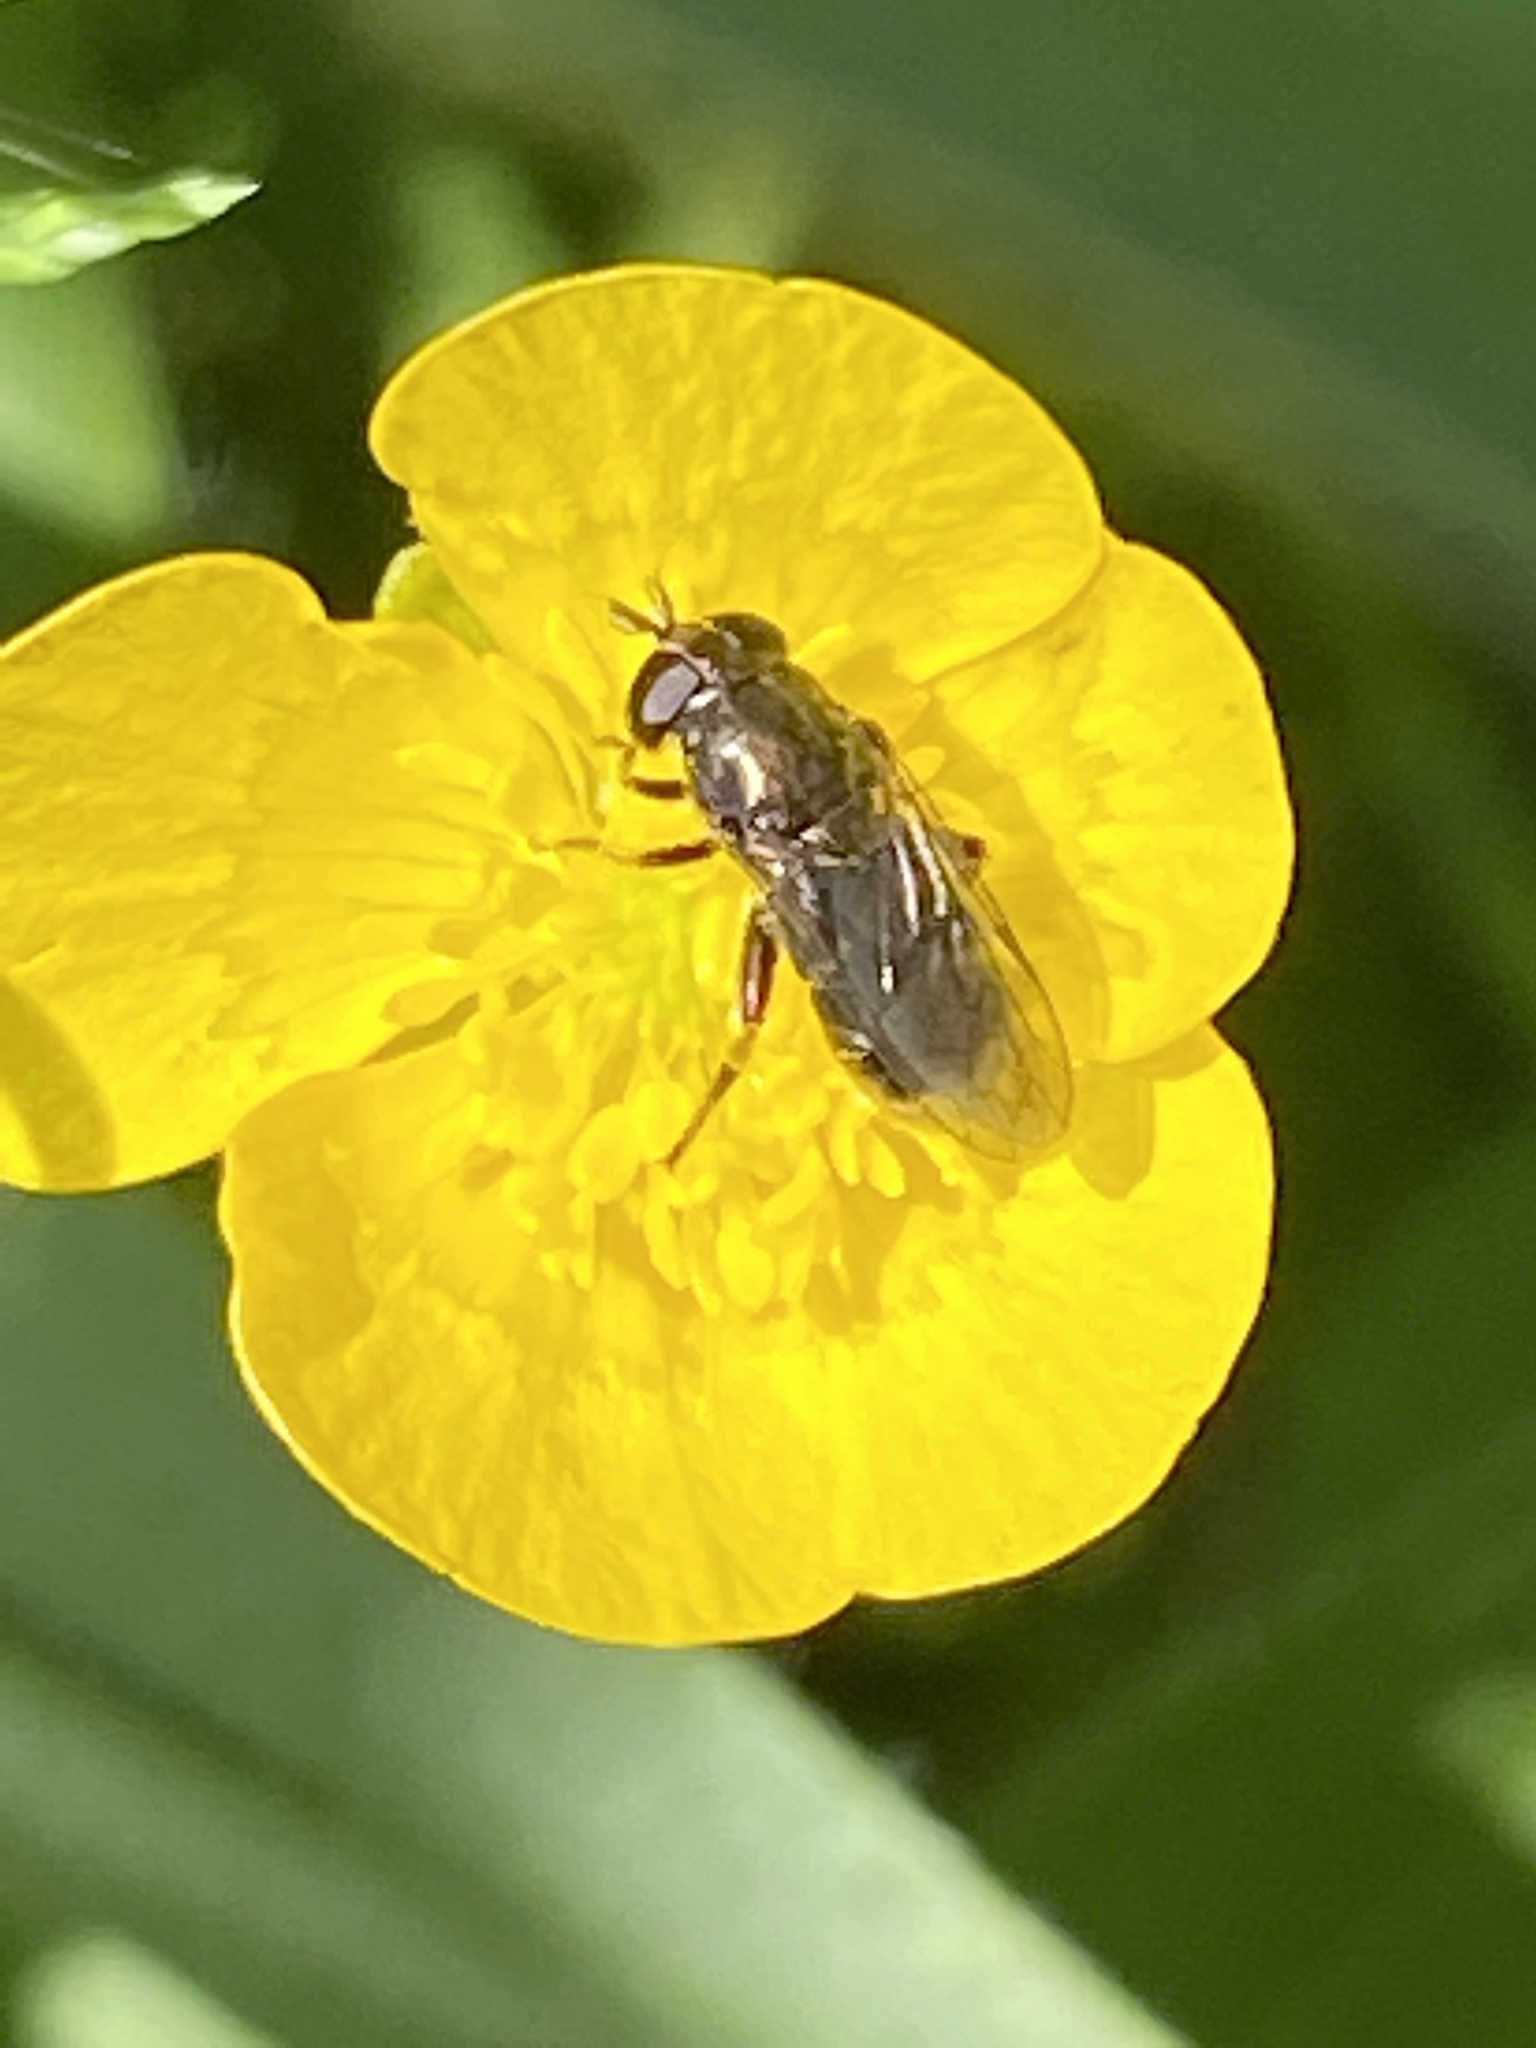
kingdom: Animalia
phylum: Arthropoda
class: Insecta
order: Diptera
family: Syrphidae
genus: Eumerus
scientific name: Eumerus
